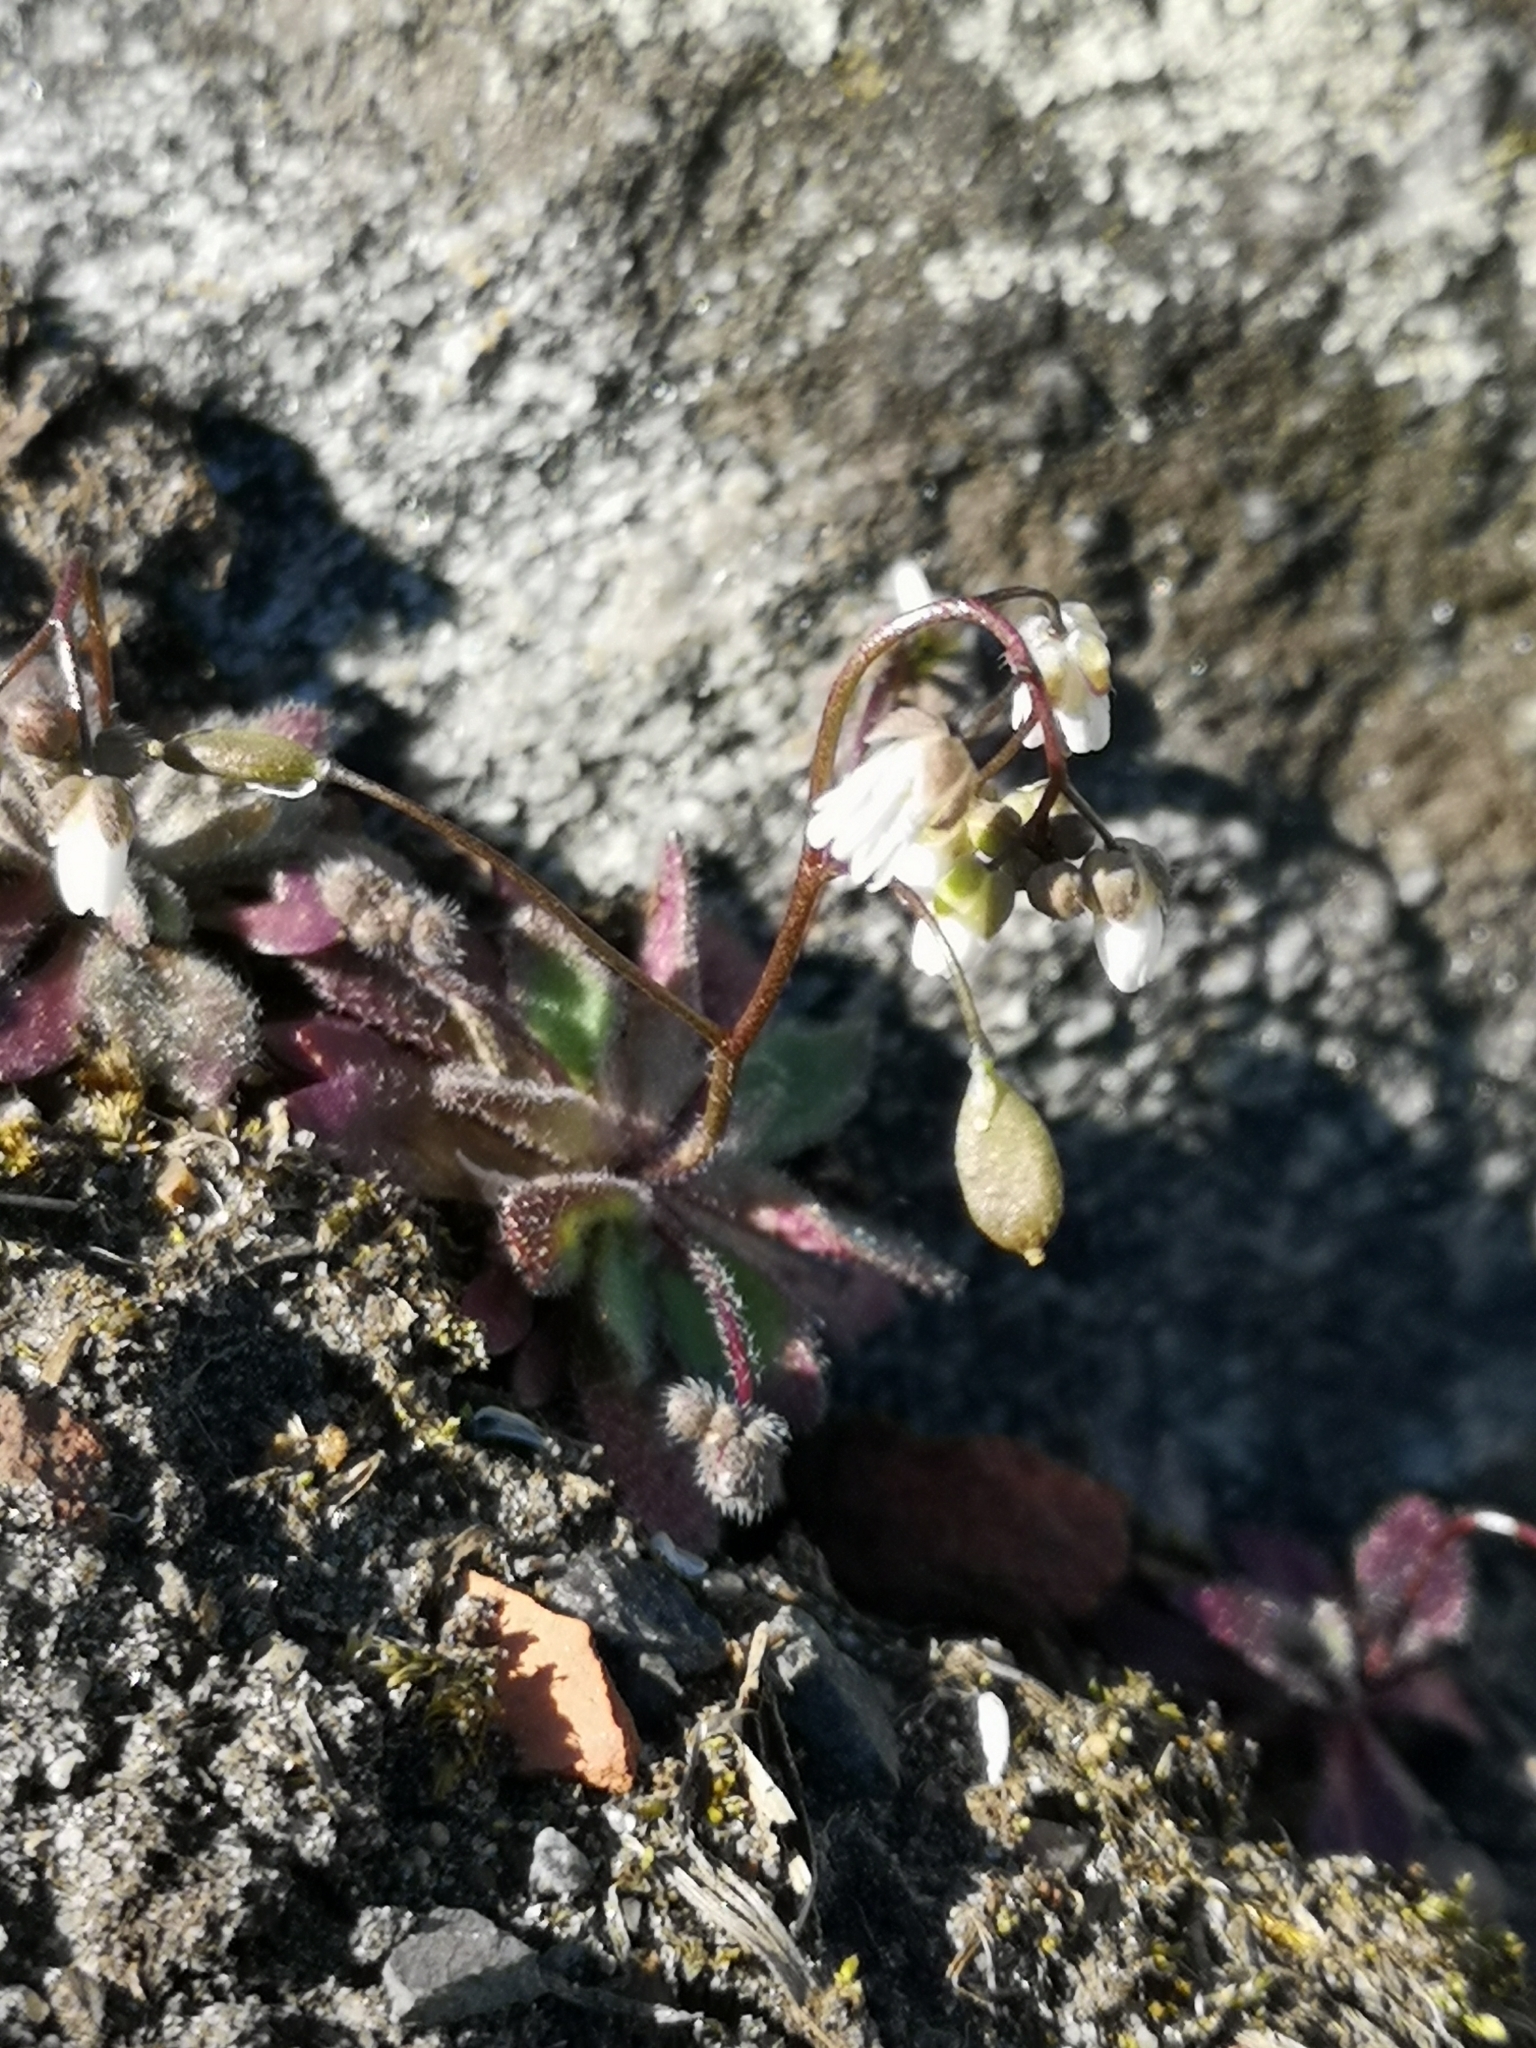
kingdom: Plantae
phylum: Tracheophyta
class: Magnoliopsida
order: Brassicales
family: Brassicaceae
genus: Draba
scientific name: Draba verna
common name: Spring draba
